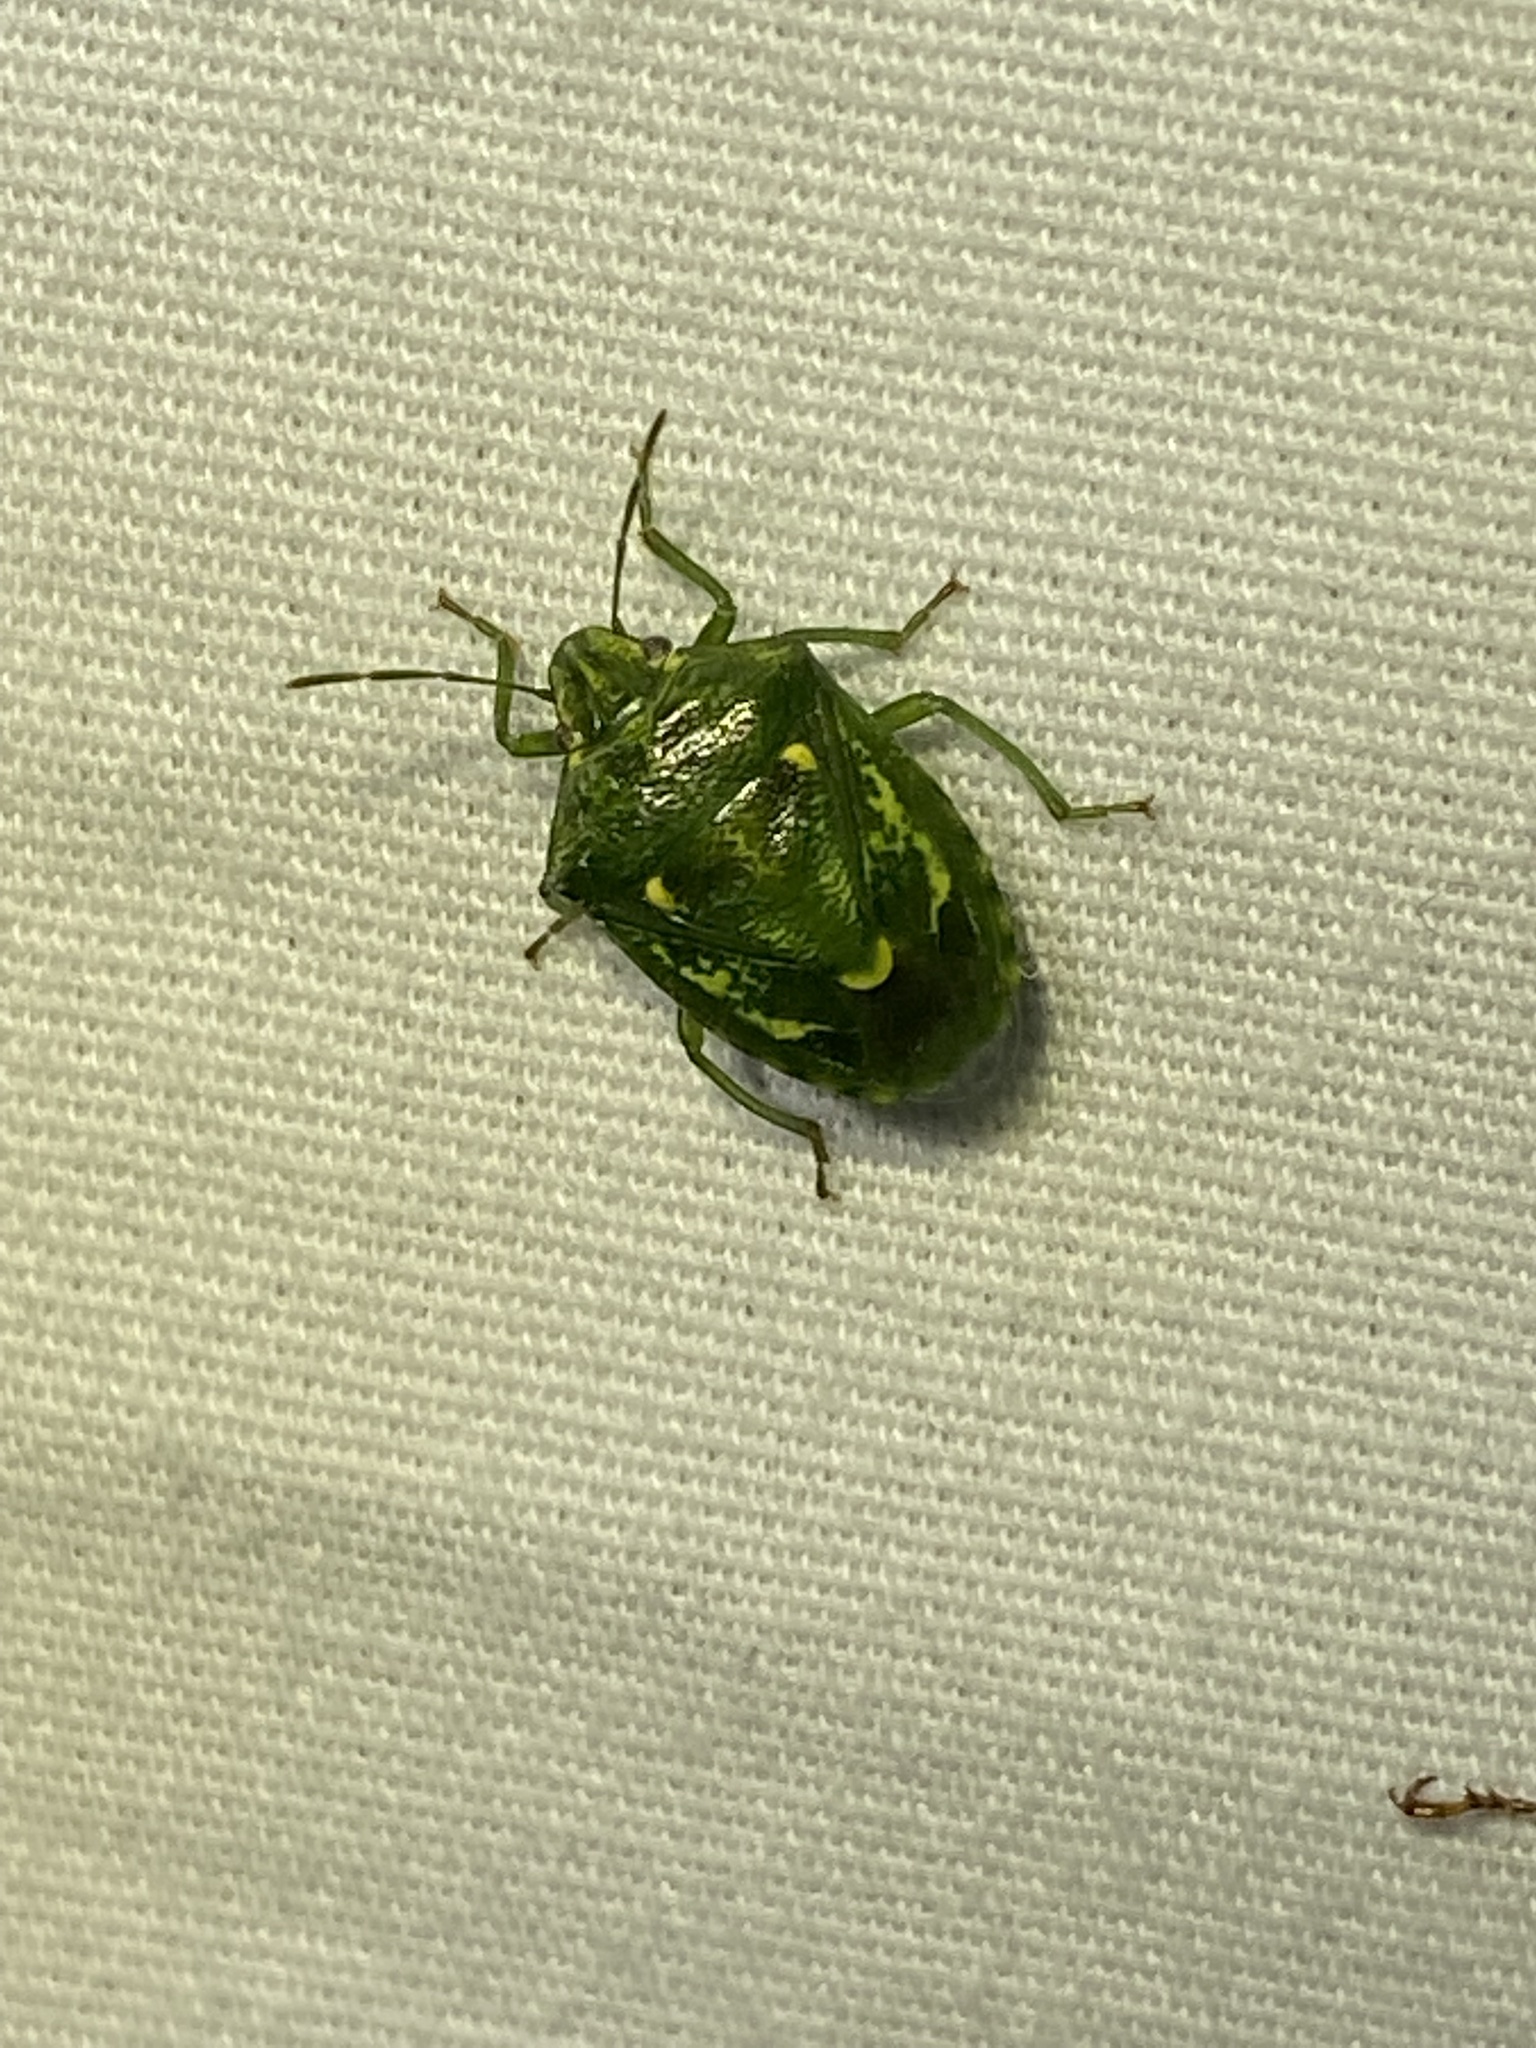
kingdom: Animalia
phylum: Arthropoda
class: Insecta
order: Hemiptera
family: Pentatomidae
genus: Banasa
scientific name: Banasa euchlora
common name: Cedar berry bug
